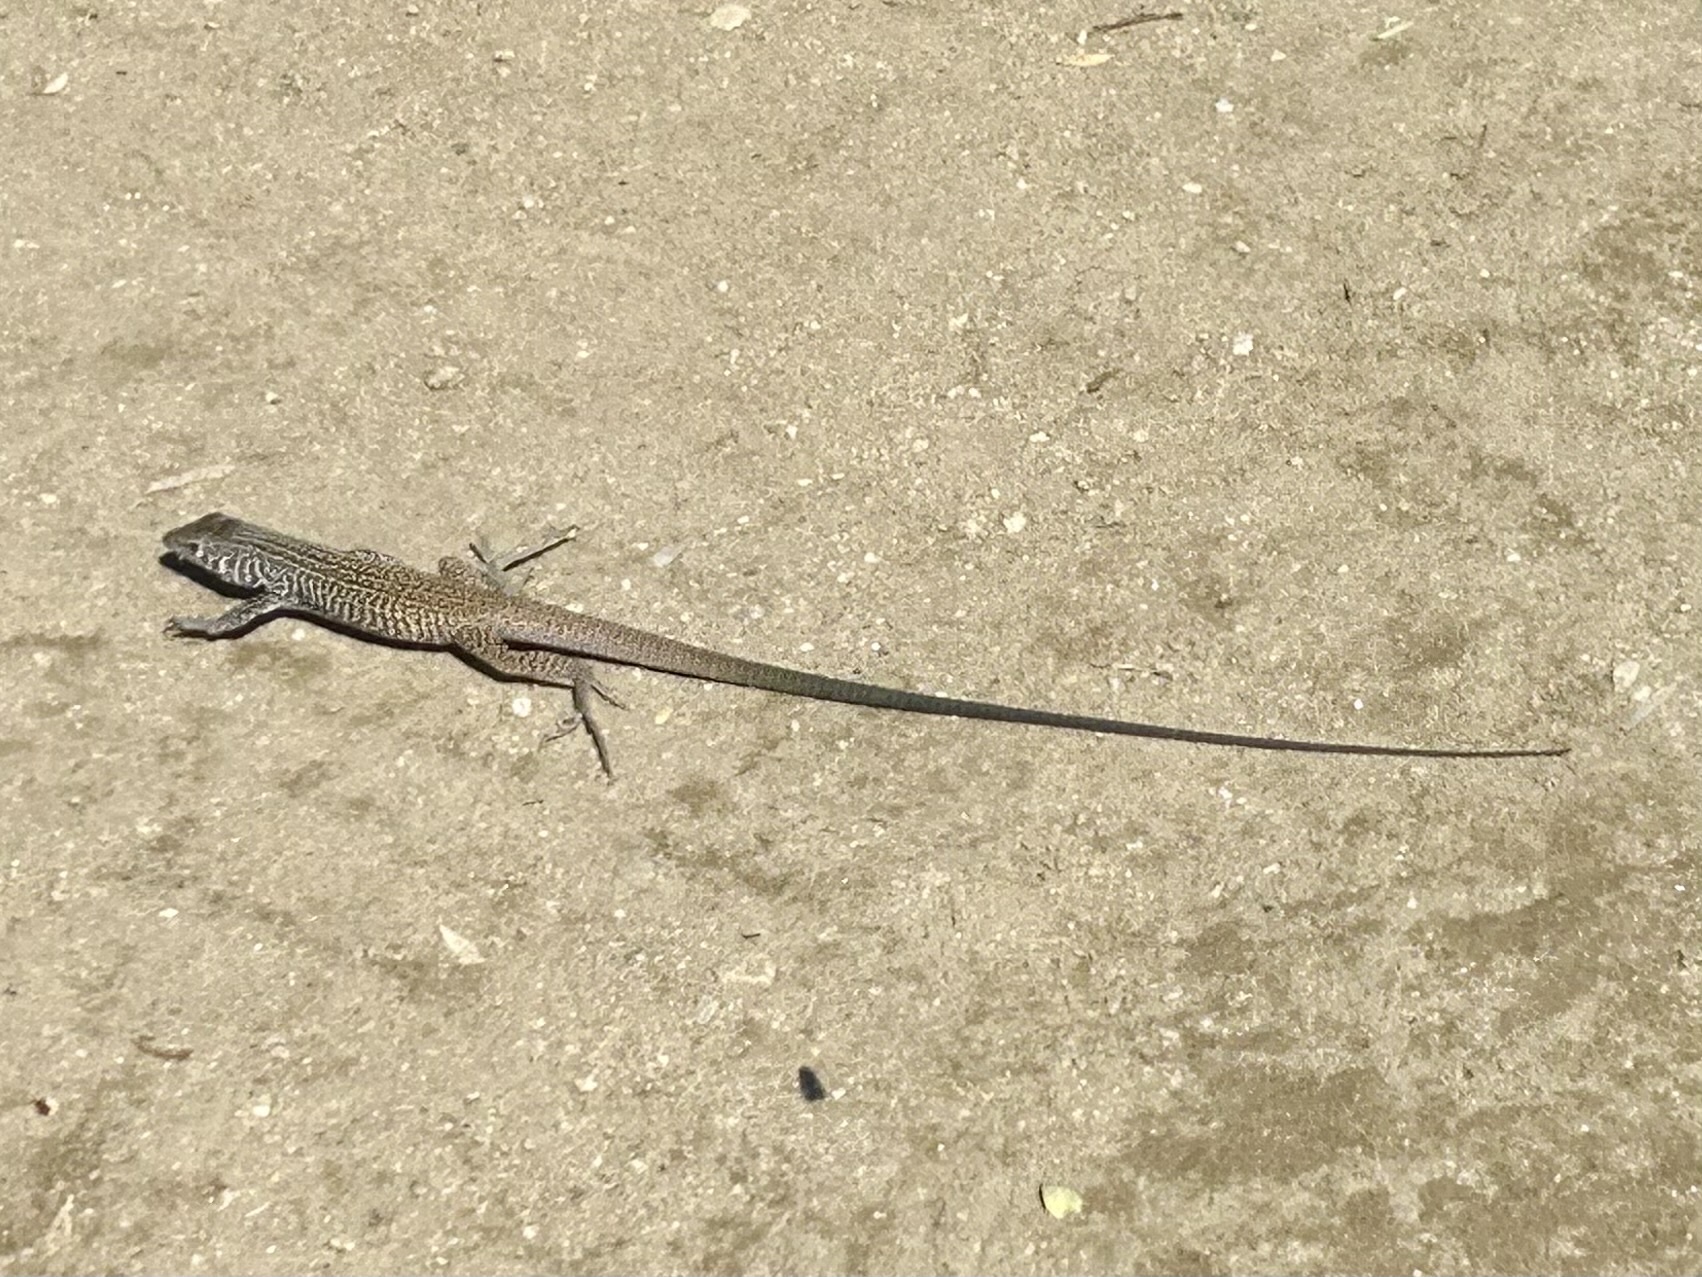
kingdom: Animalia
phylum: Chordata
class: Squamata
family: Teiidae
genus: Aspidoscelis
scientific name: Aspidoscelis tigris
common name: Tiger whiptail
